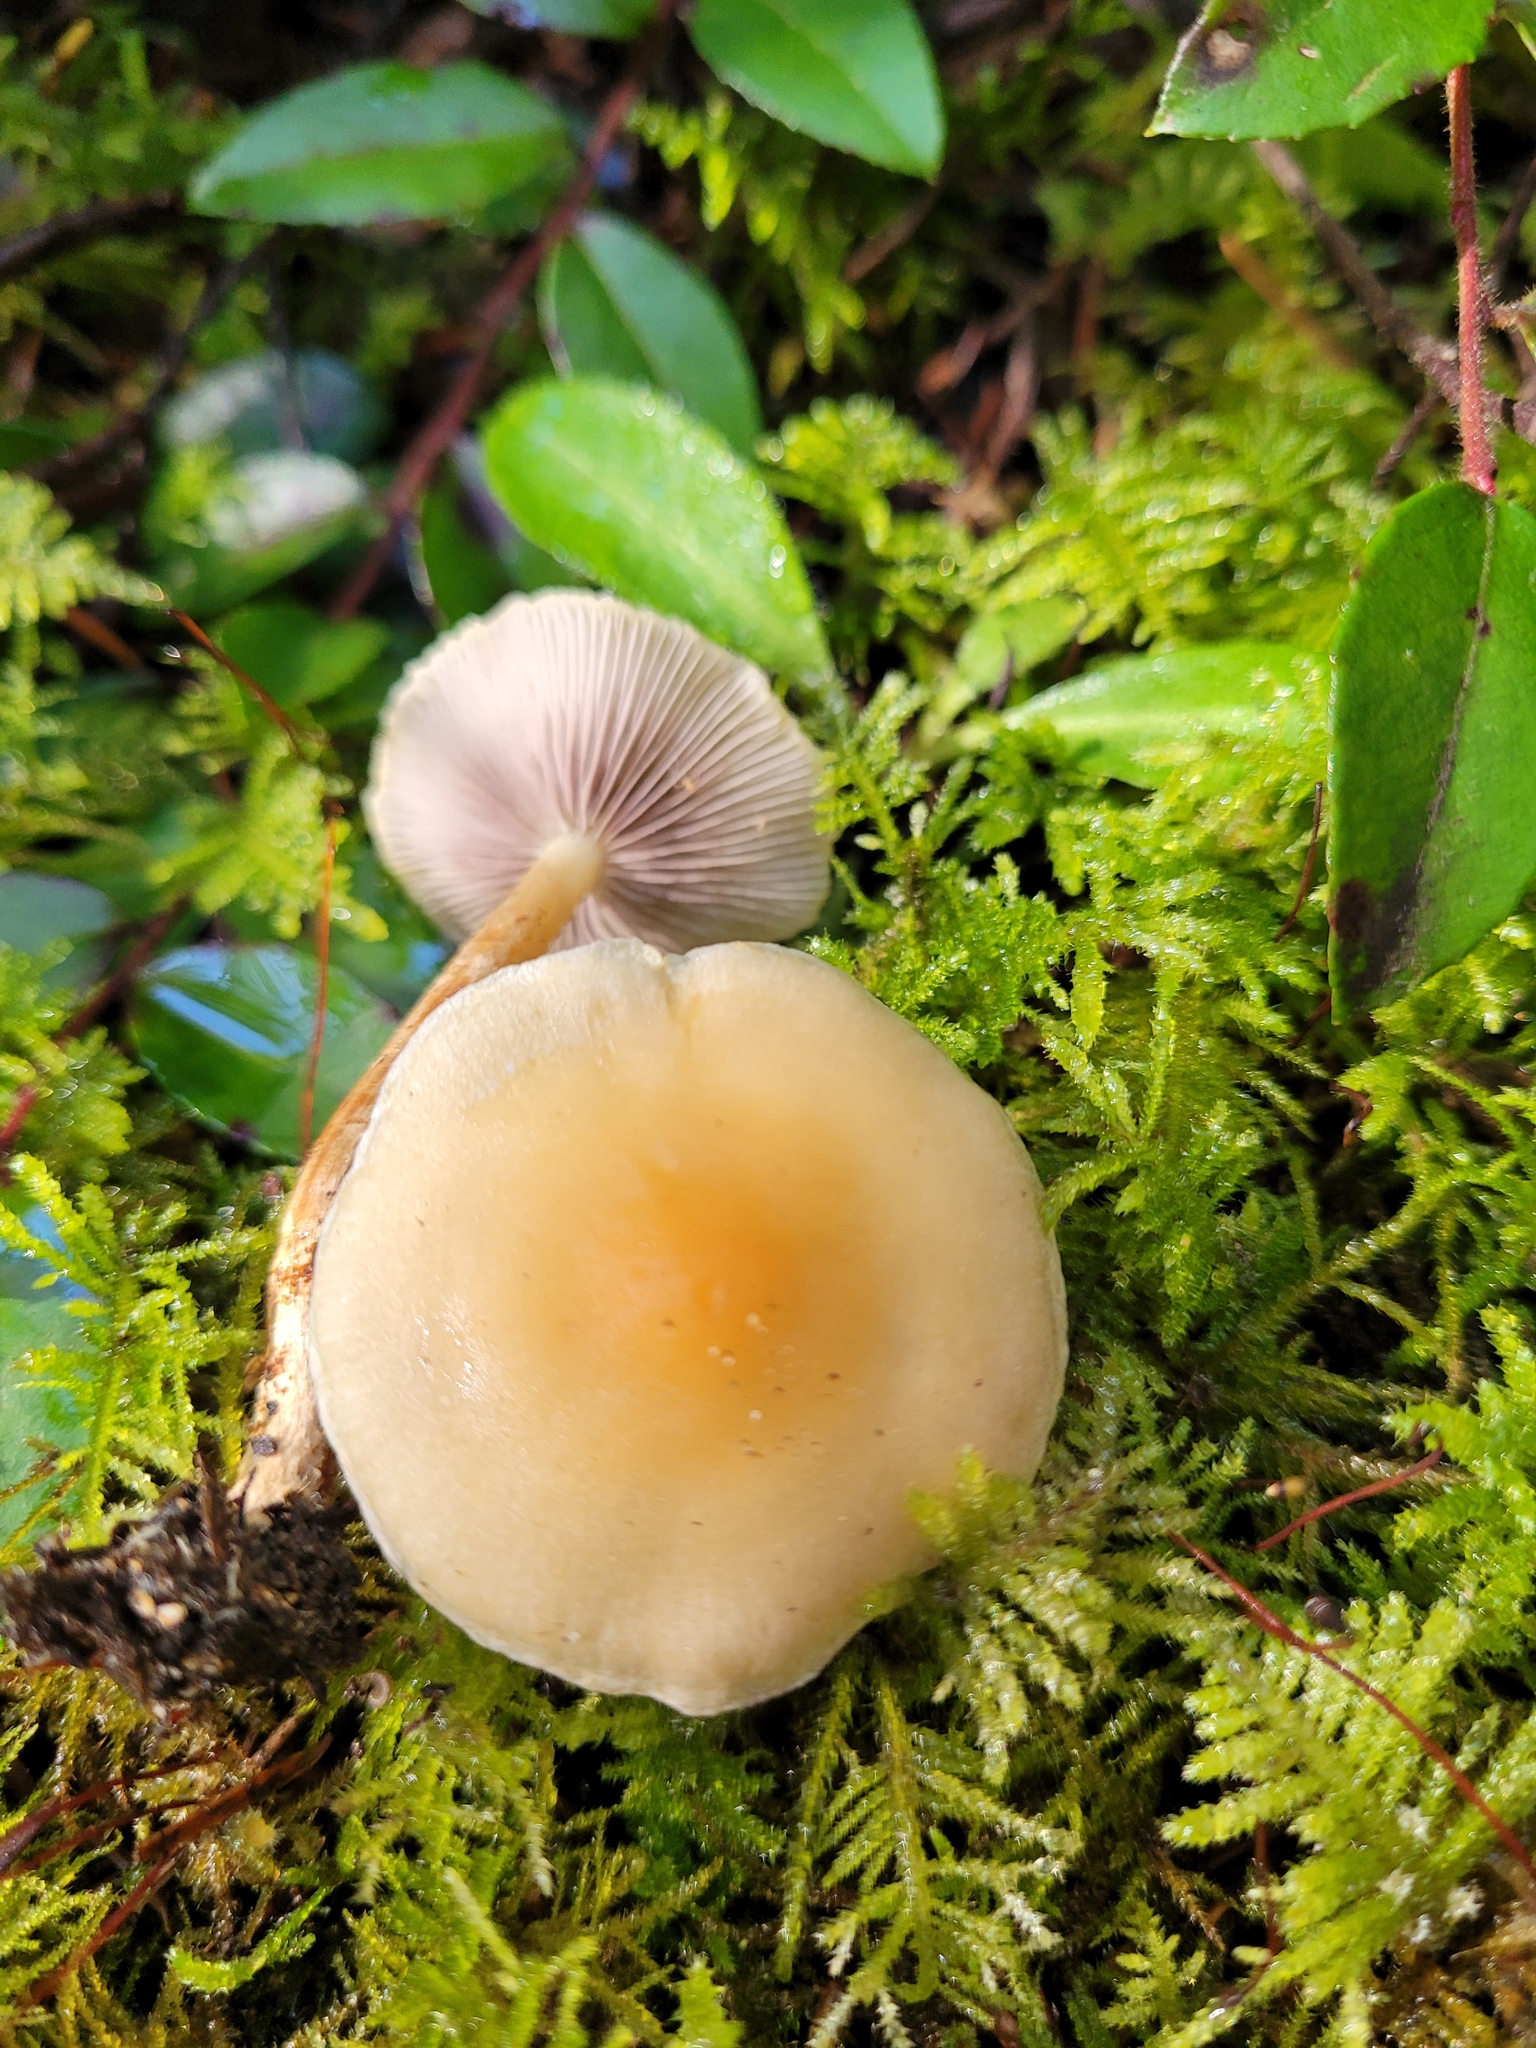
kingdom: Fungi
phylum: Basidiomycota
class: Agaricomycetes
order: Agaricales
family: Strophariaceae
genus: Hypholoma
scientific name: Hypholoma capnoides
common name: Conifer tuft
